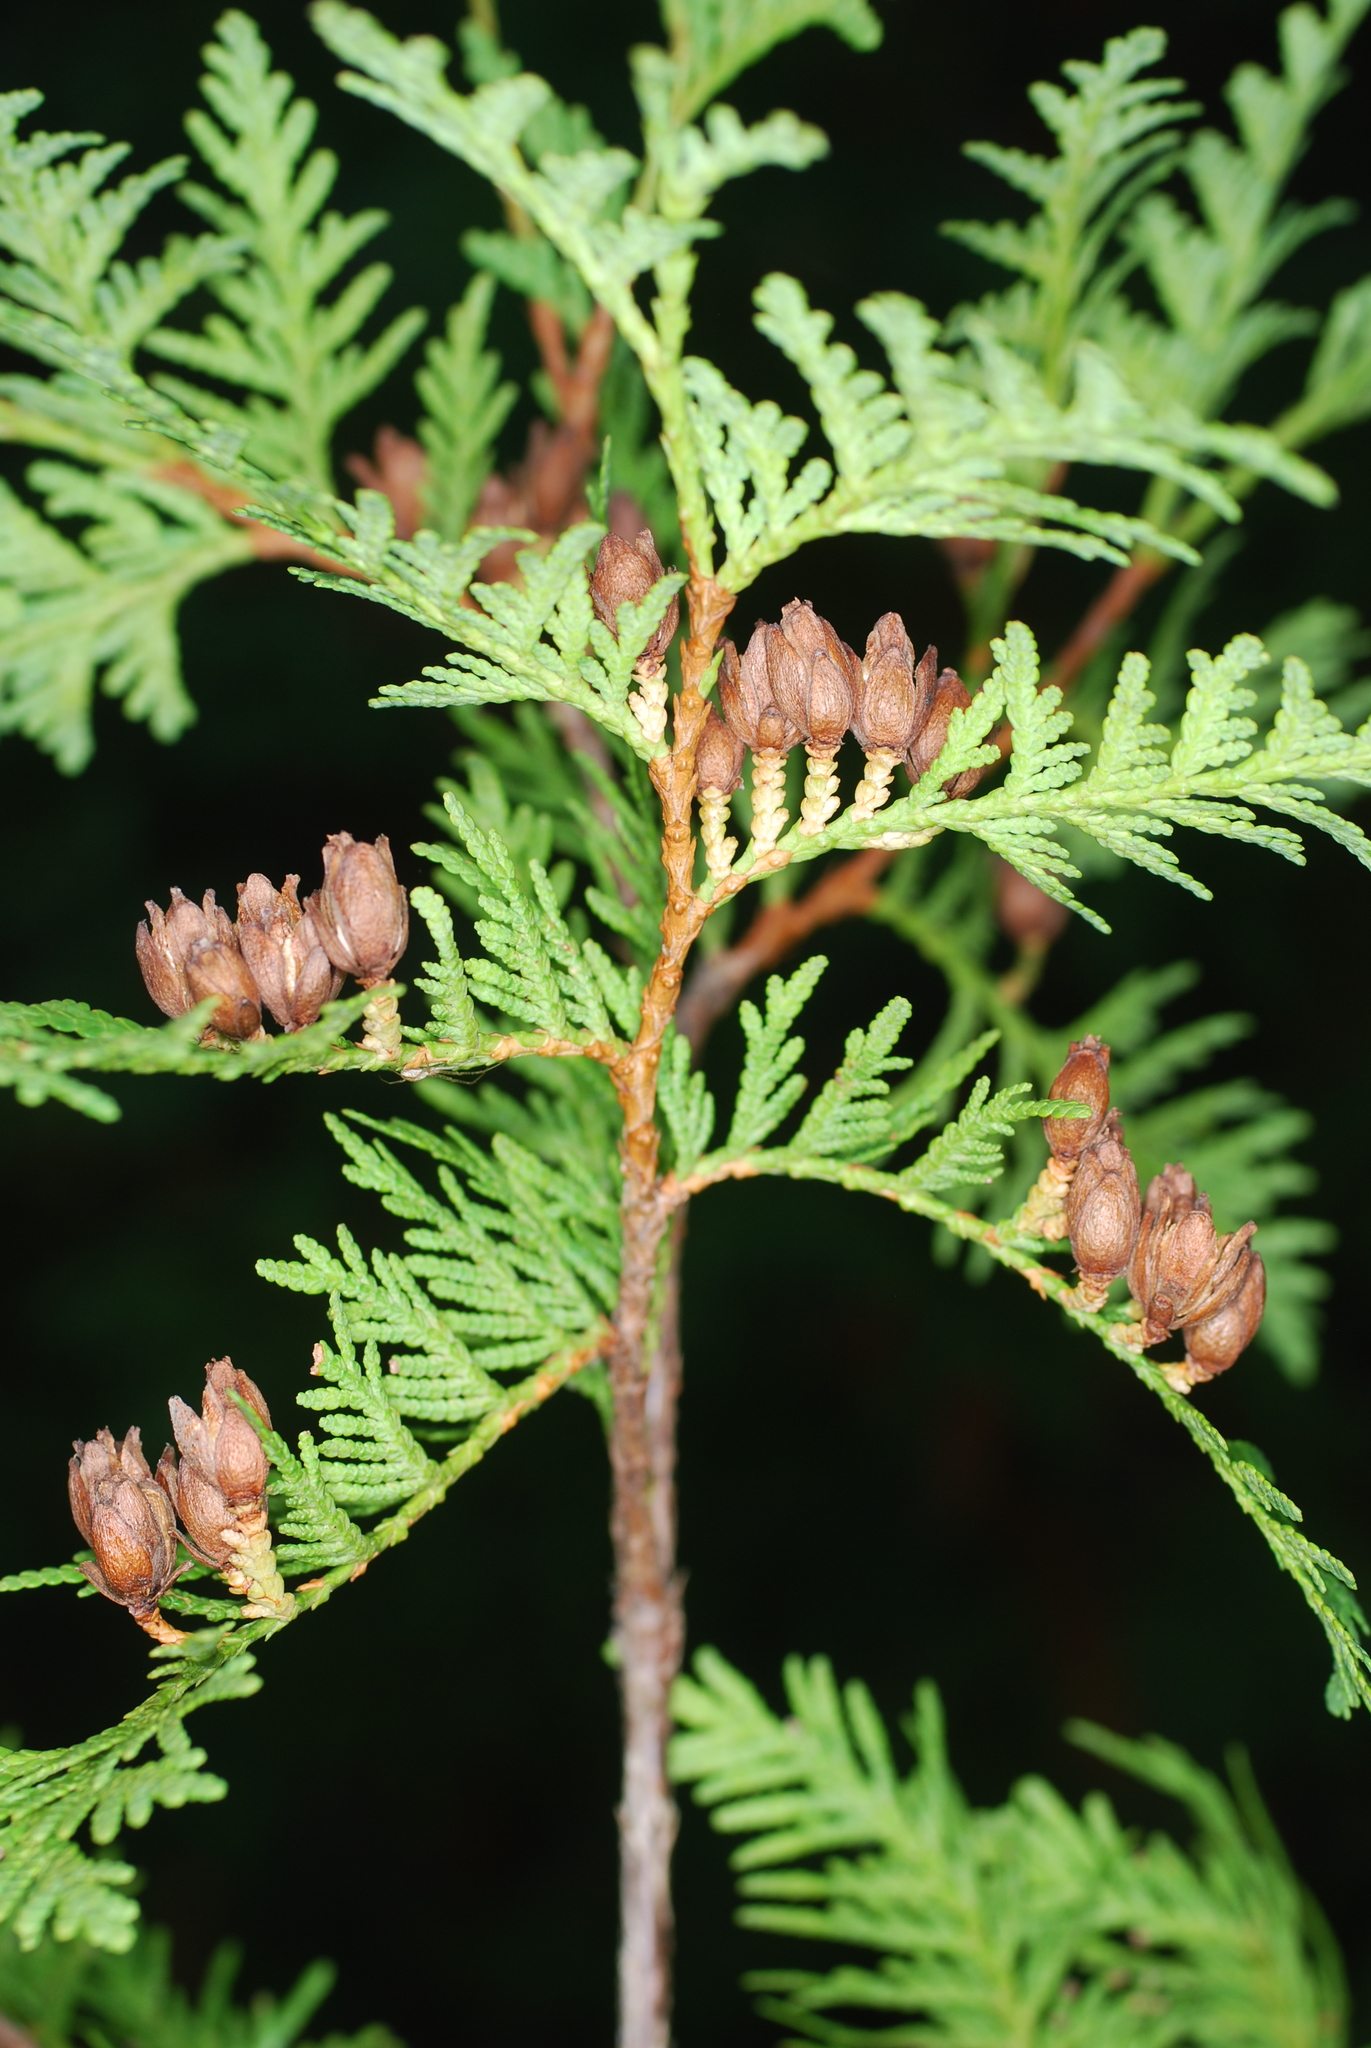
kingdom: Plantae
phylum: Tracheophyta
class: Pinopsida
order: Pinales
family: Cupressaceae
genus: Thuja
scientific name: Thuja occidentalis
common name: Northern white-cedar
